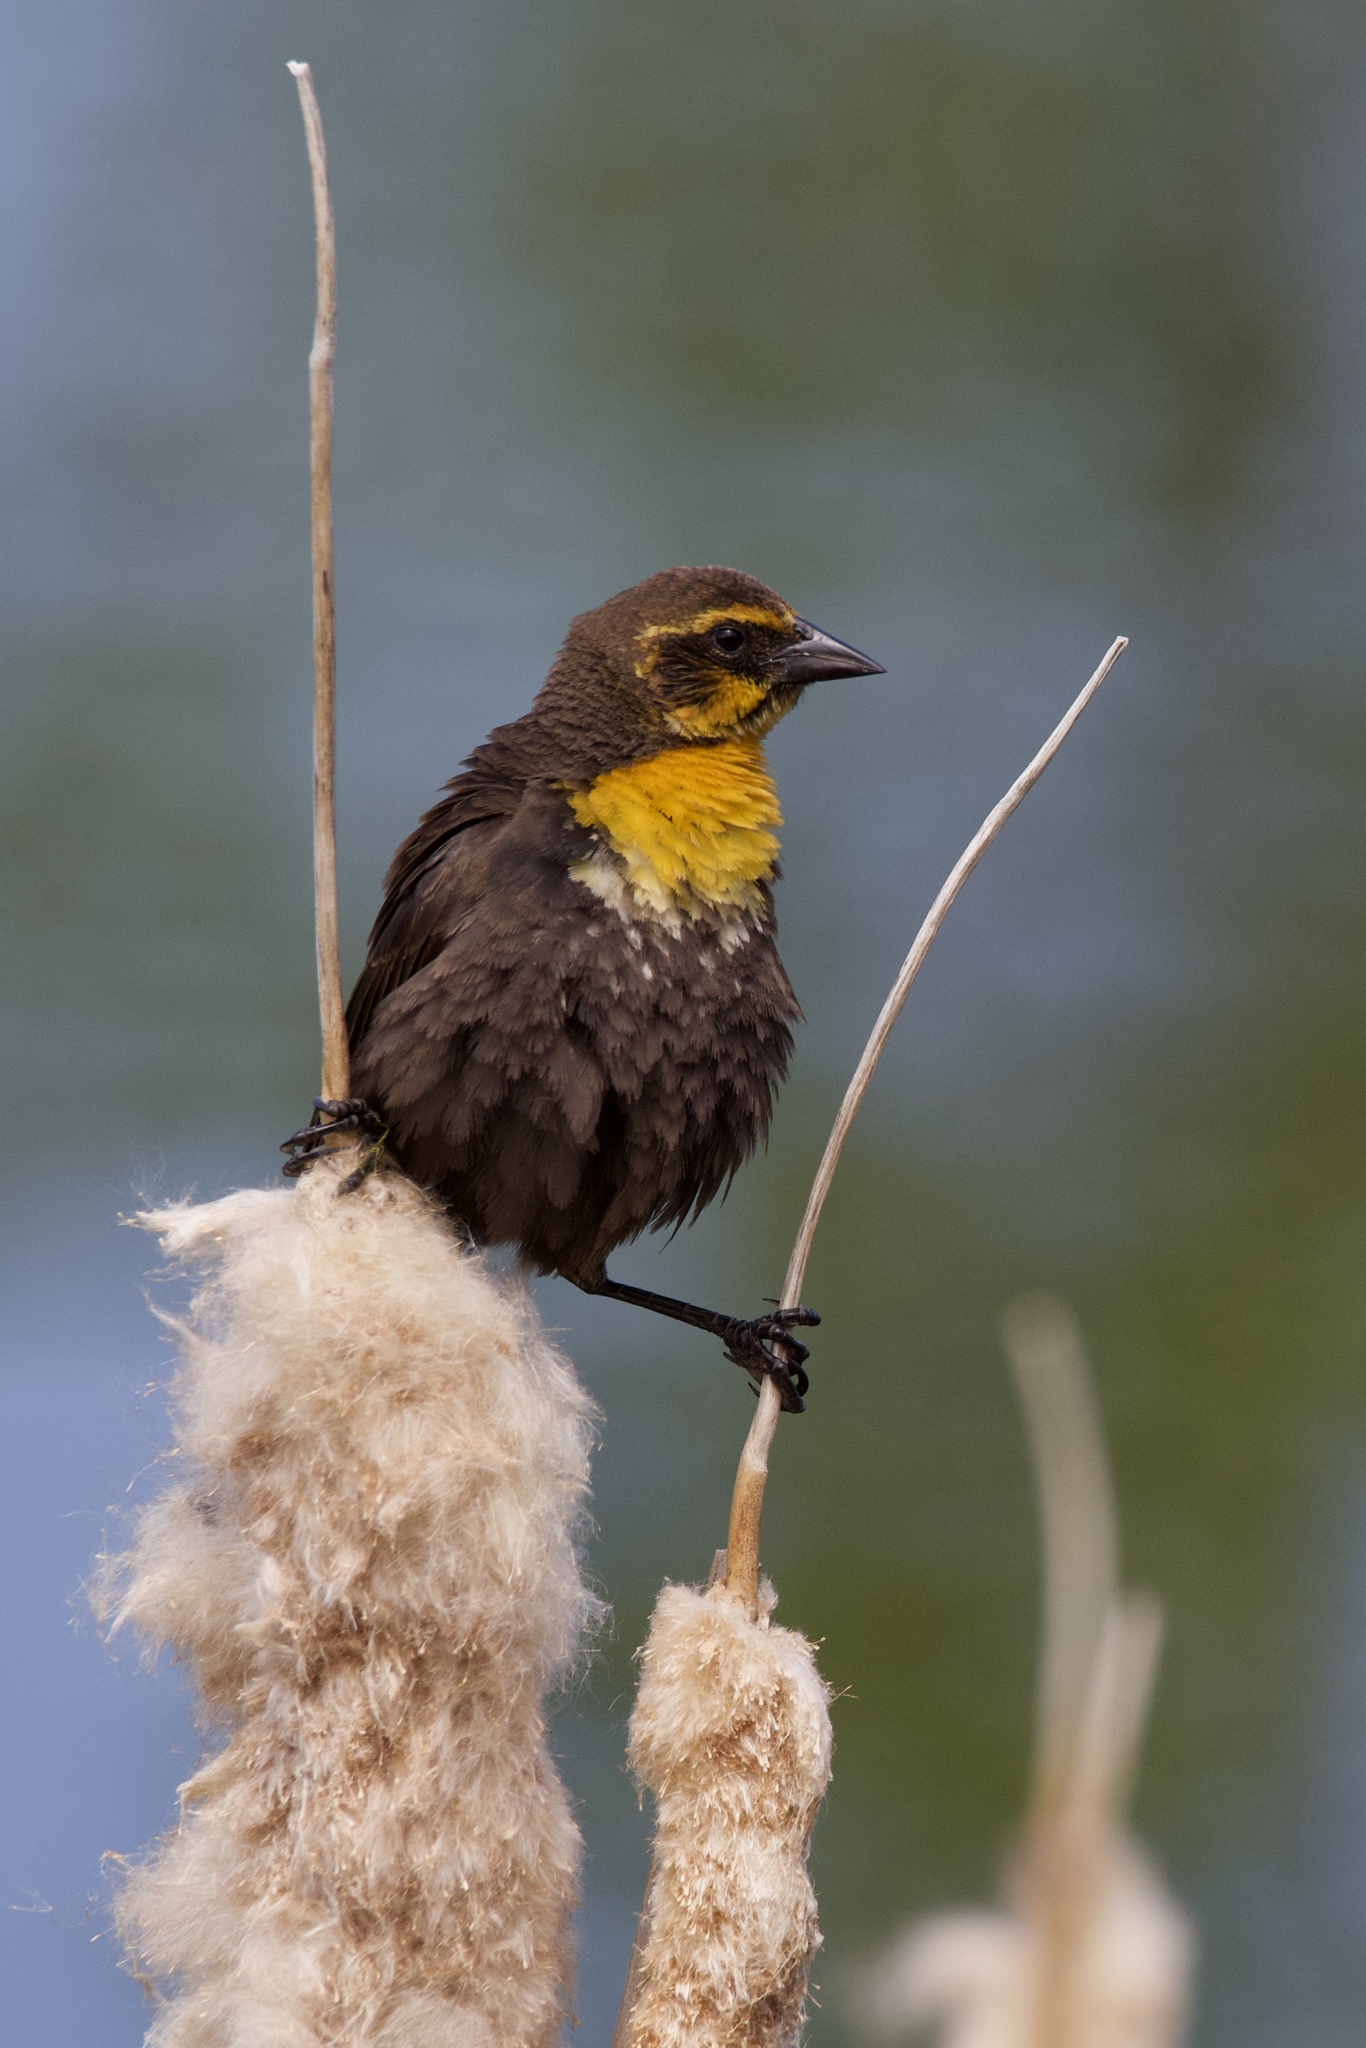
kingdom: Animalia
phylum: Chordata
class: Aves
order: Passeriformes
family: Icteridae
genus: Xanthocephalus
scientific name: Xanthocephalus xanthocephalus
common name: Yellow-headed blackbird
